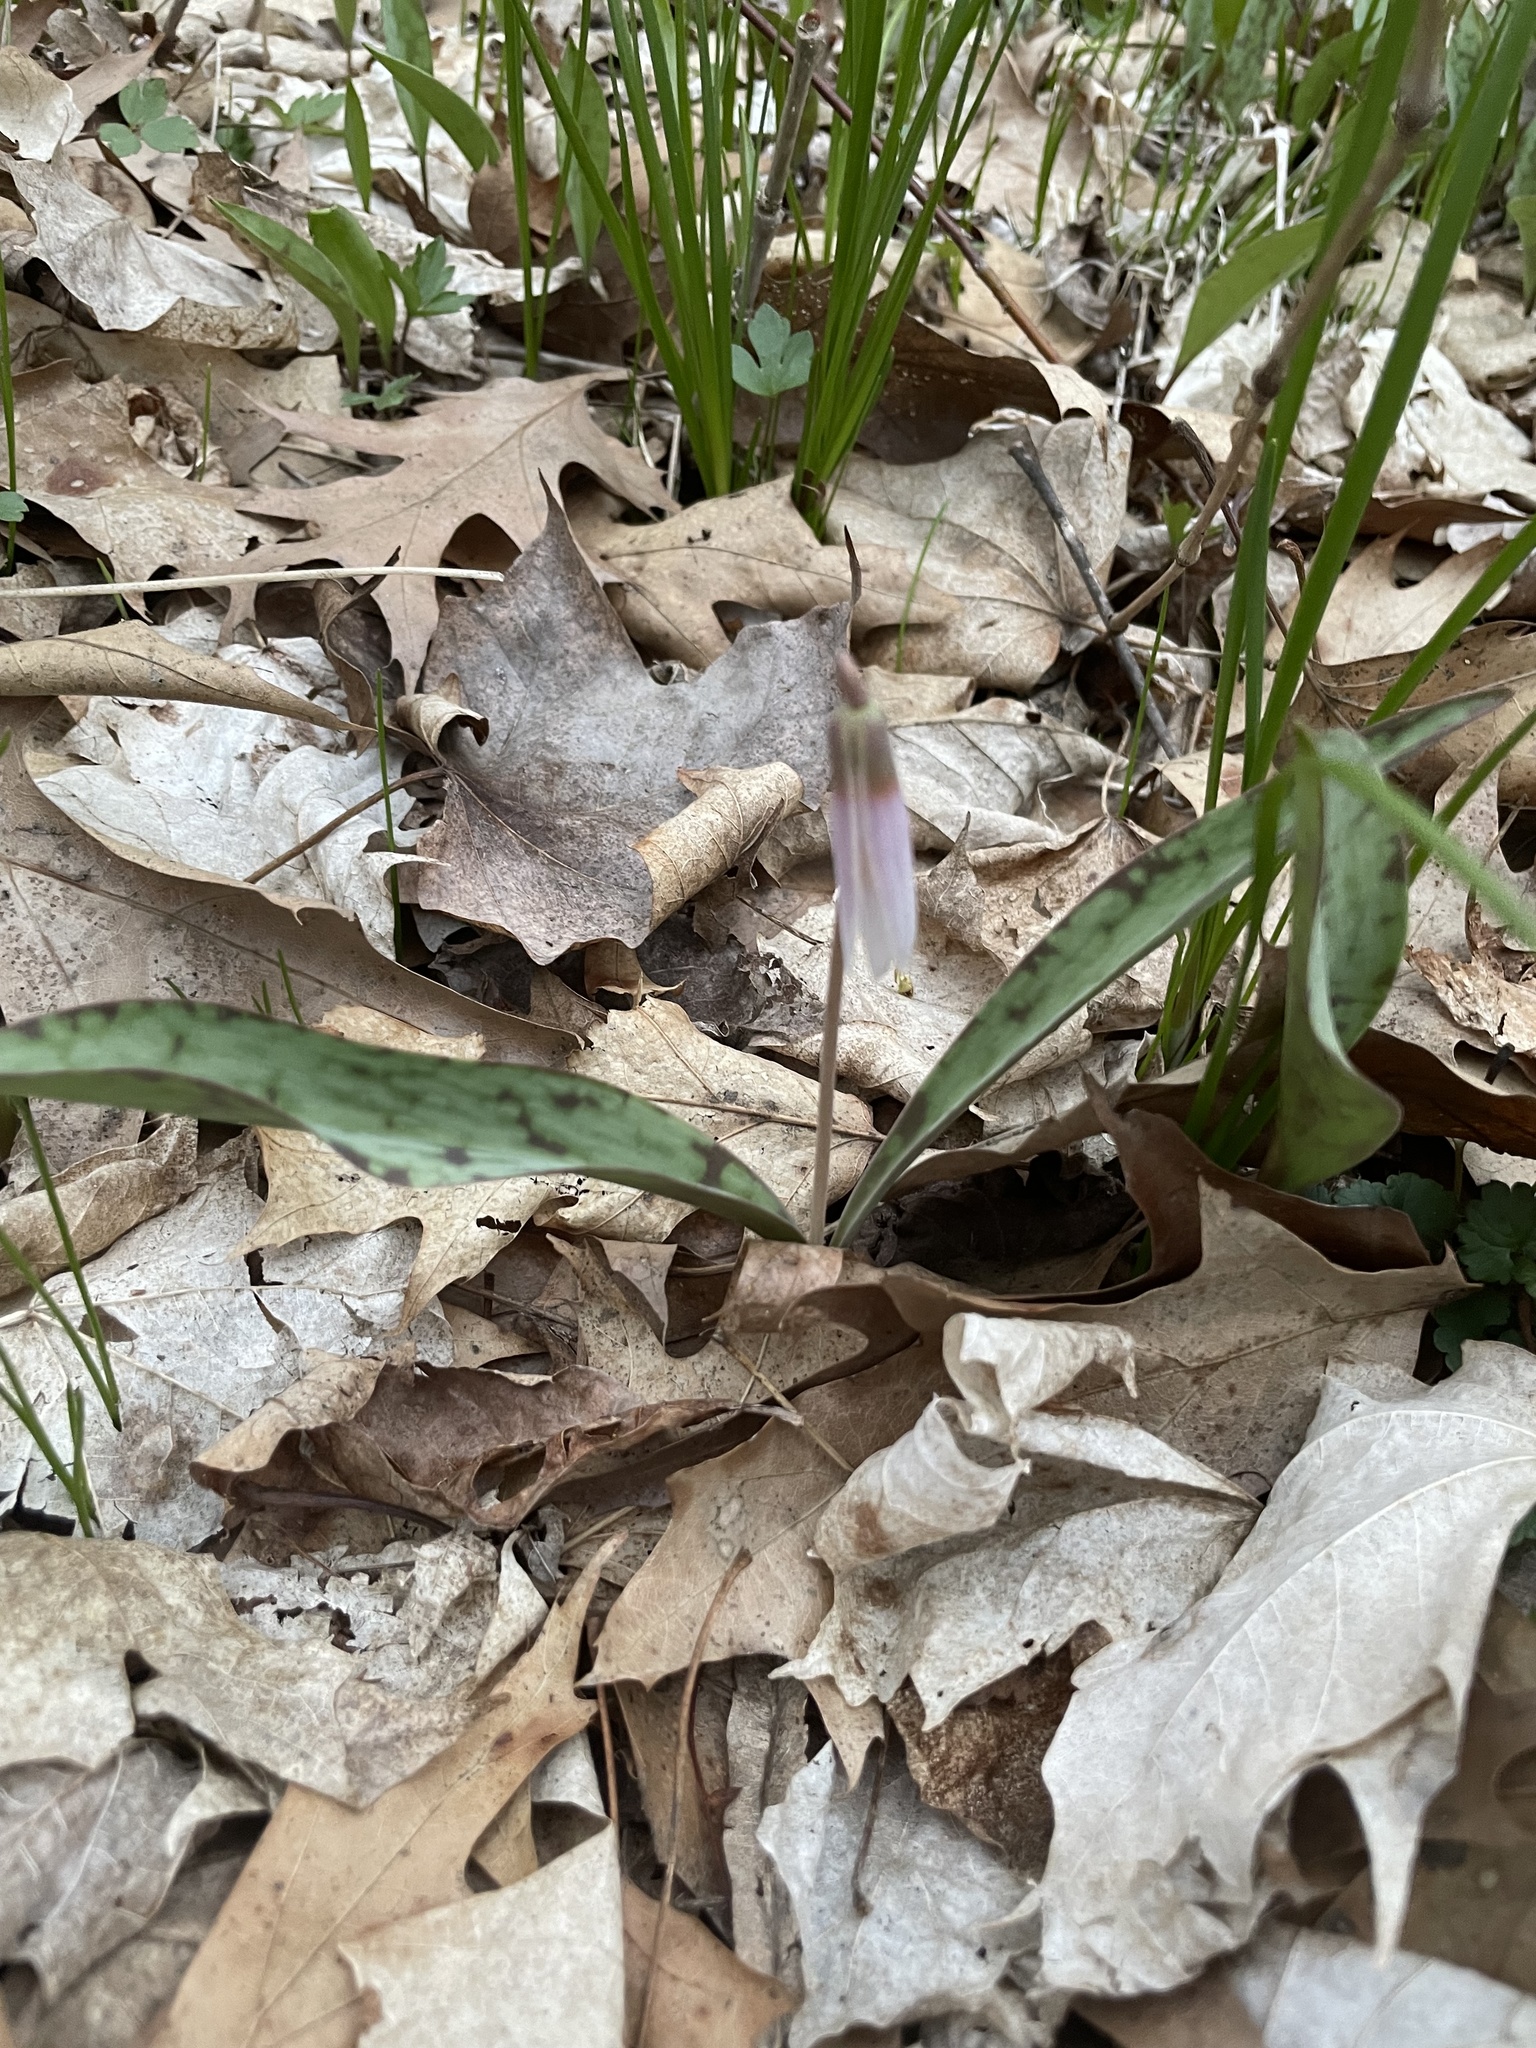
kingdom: Plantae
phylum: Tracheophyta
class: Liliopsida
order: Liliales
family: Liliaceae
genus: Erythronium
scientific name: Erythronium albidum
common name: White trout-lily
